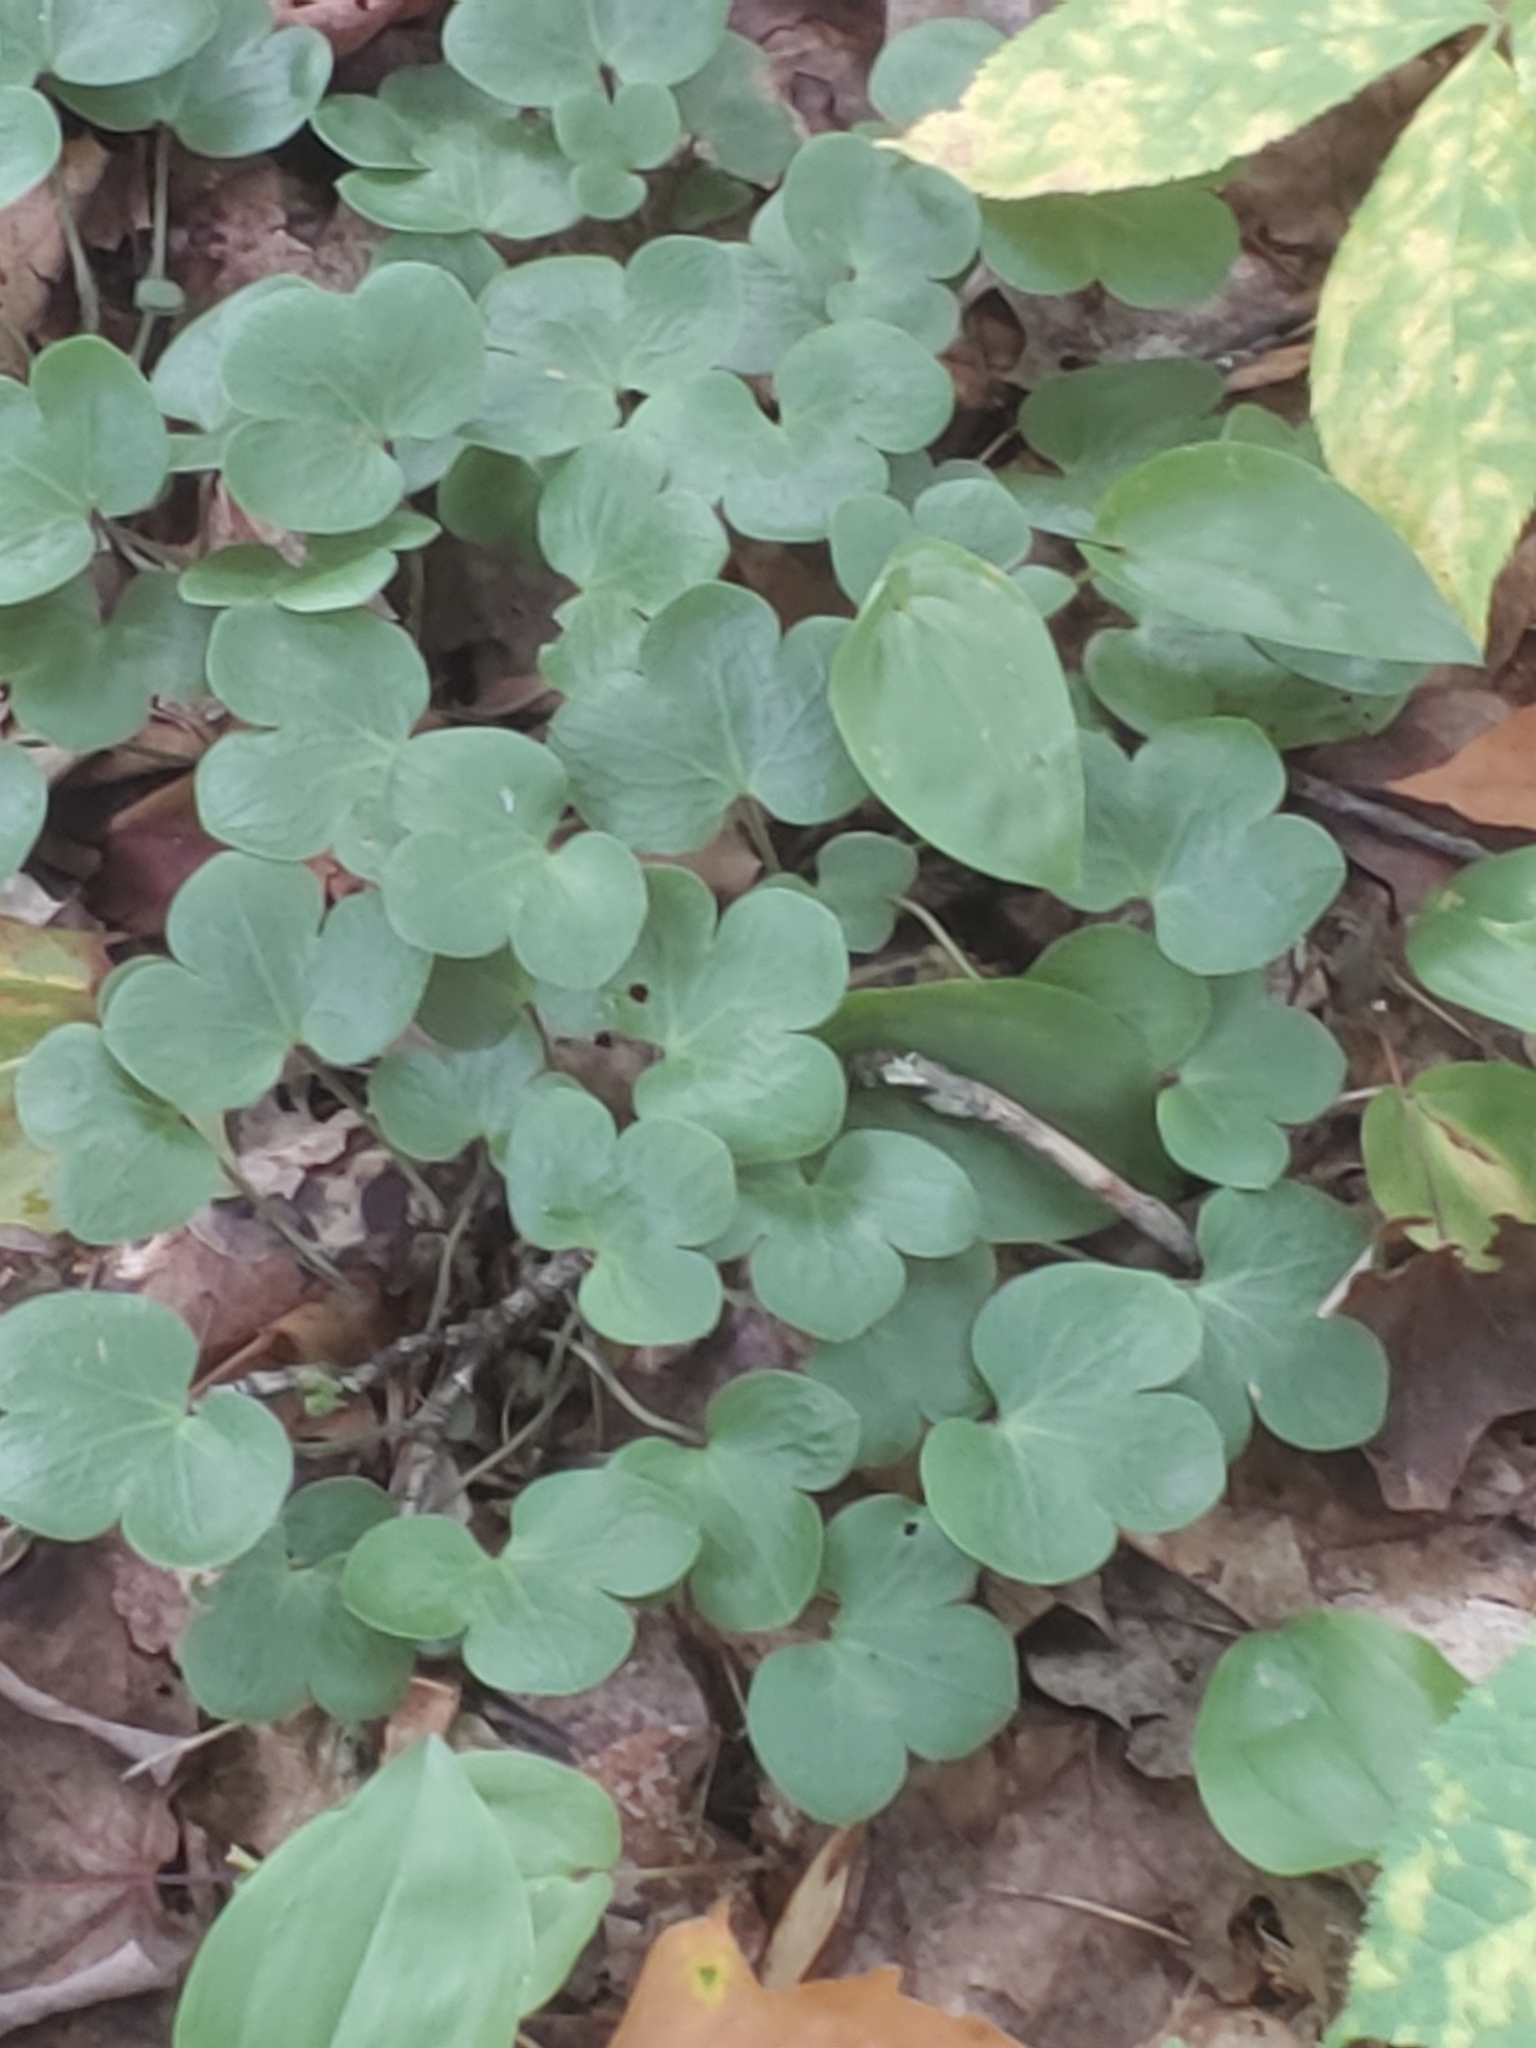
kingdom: Plantae
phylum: Tracheophyta
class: Magnoliopsida
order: Ranunculales
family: Ranunculaceae
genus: Hepatica
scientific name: Hepatica americana
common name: American hepatica
